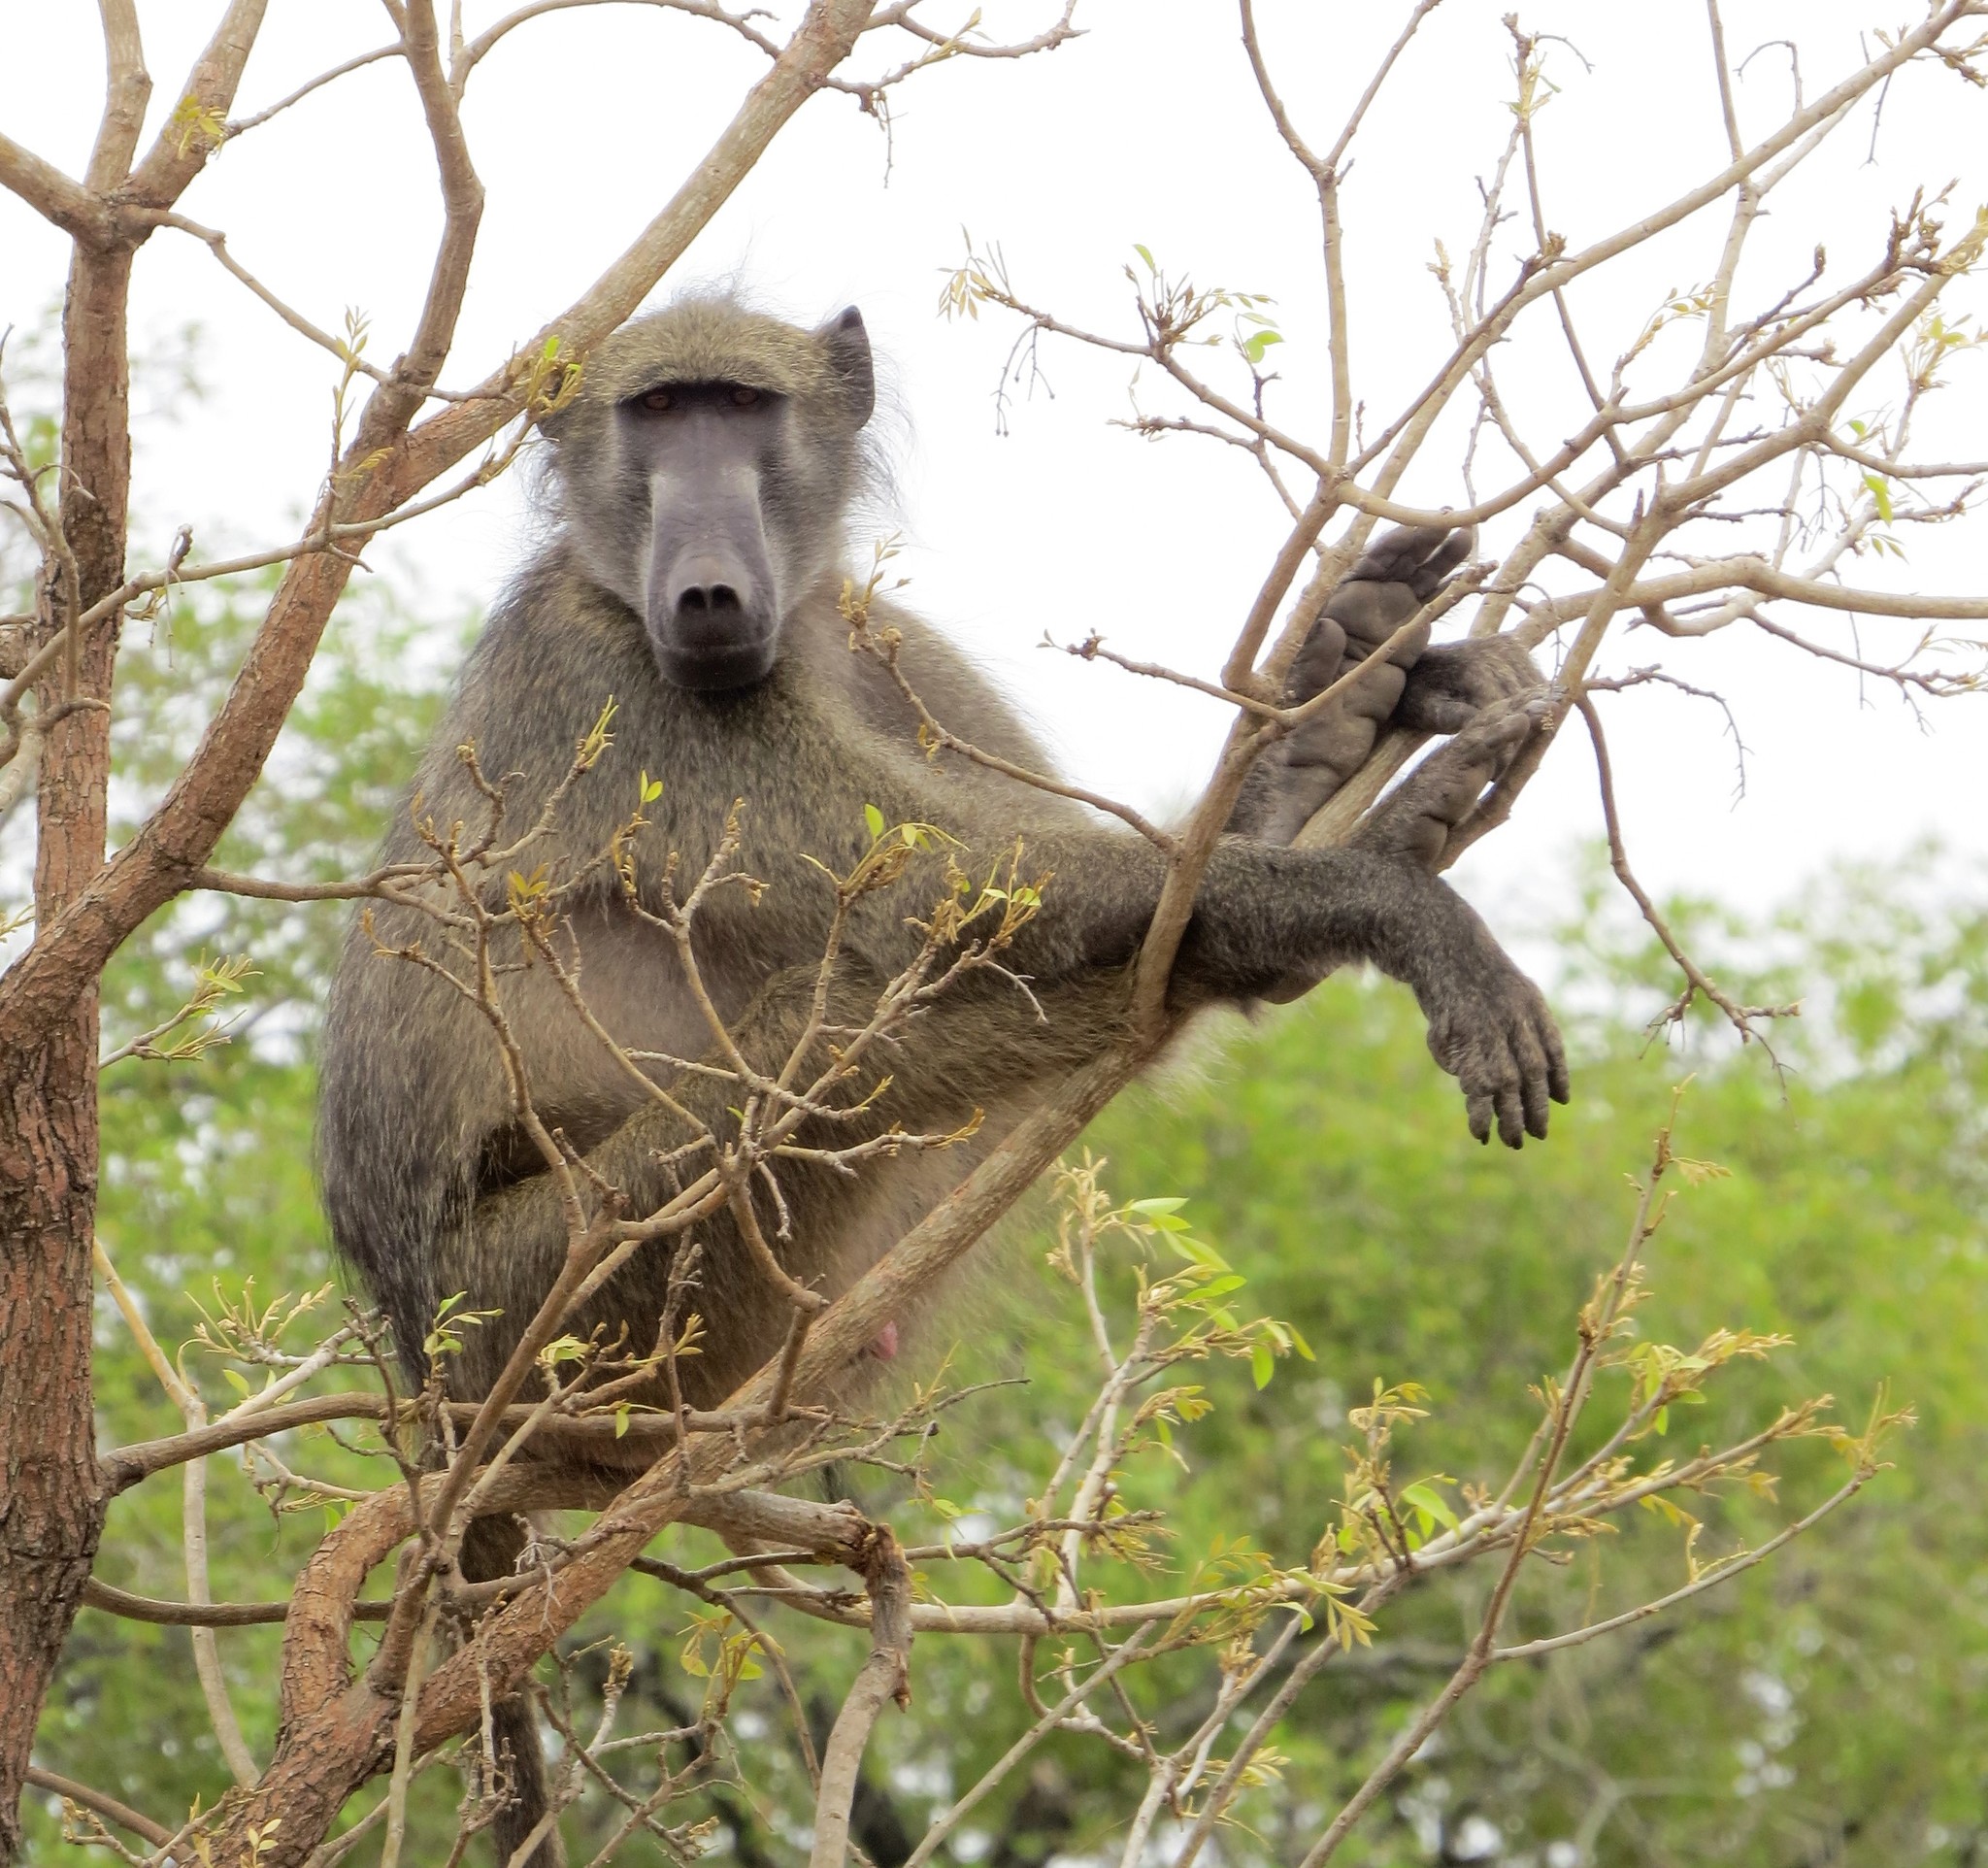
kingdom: Animalia
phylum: Chordata
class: Mammalia
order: Primates
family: Cercopithecidae
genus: Papio
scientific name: Papio ursinus
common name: Chacma baboon
